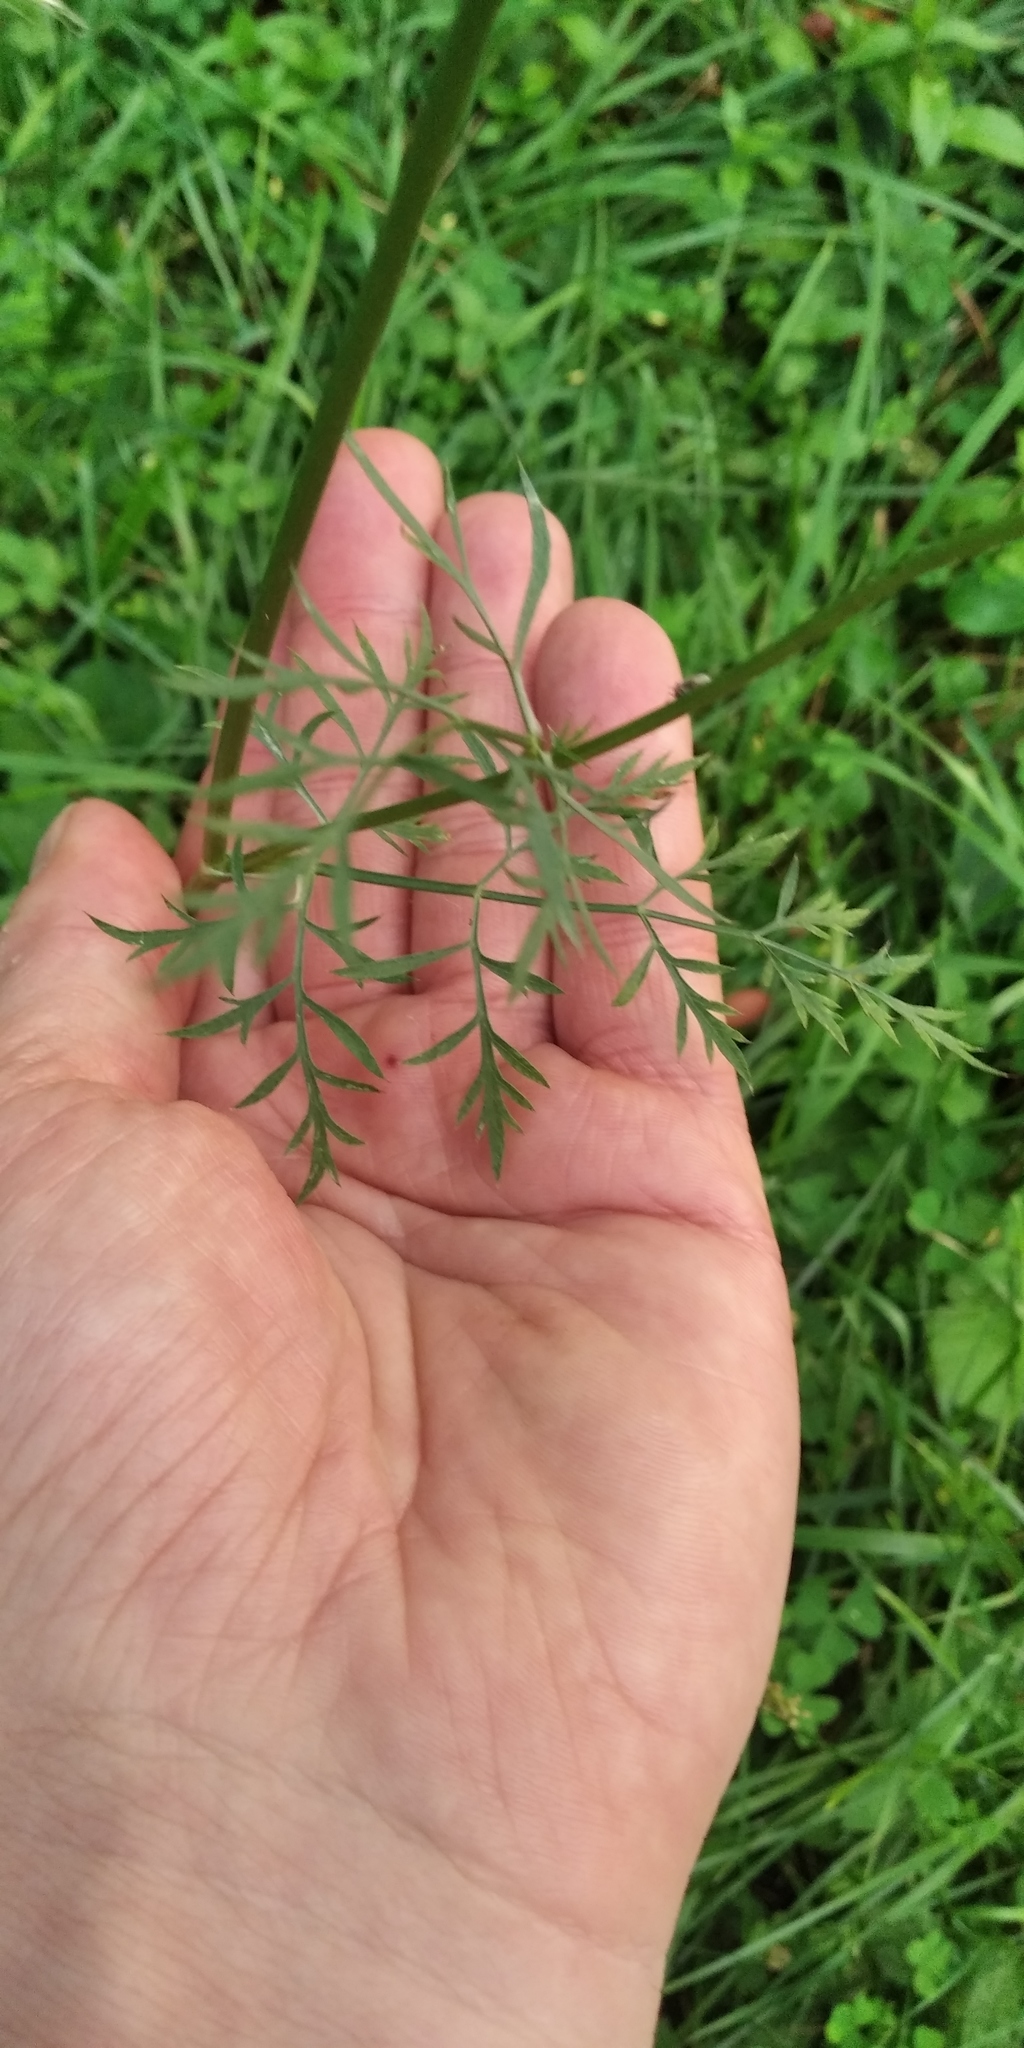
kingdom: Plantae
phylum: Tracheophyta
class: Magnoliopsida
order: Apiales
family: Apiaceae
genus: Daucus
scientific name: Daucus carota
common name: Wild carrot
